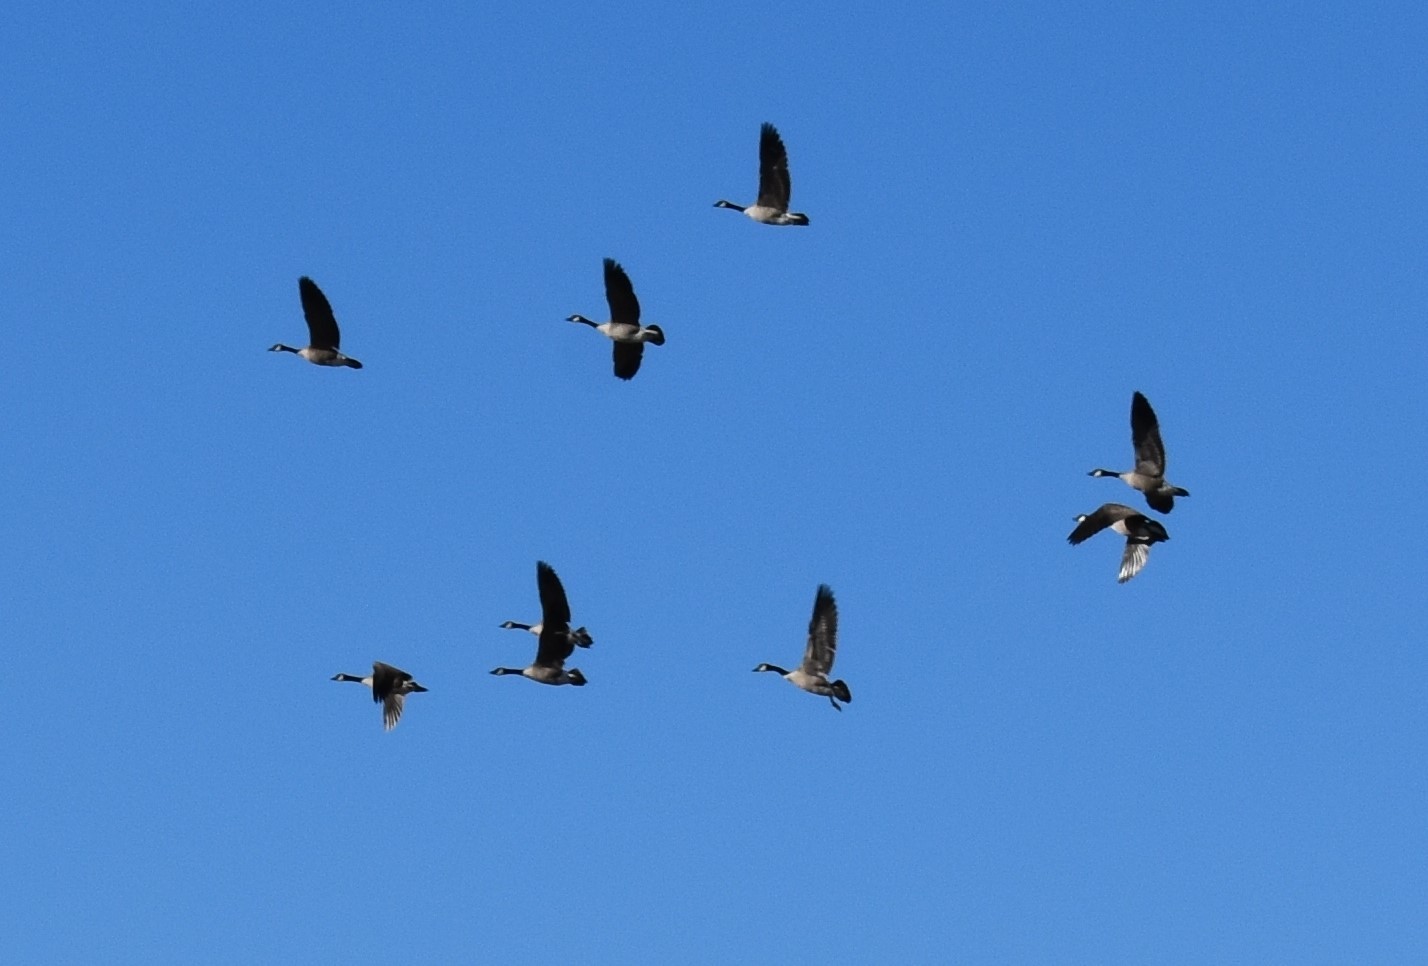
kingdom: Animalia
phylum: Chordata
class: Aves
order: Anseriformes
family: Anatidae
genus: Branta
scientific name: Branta canadensis
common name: Canada goose
